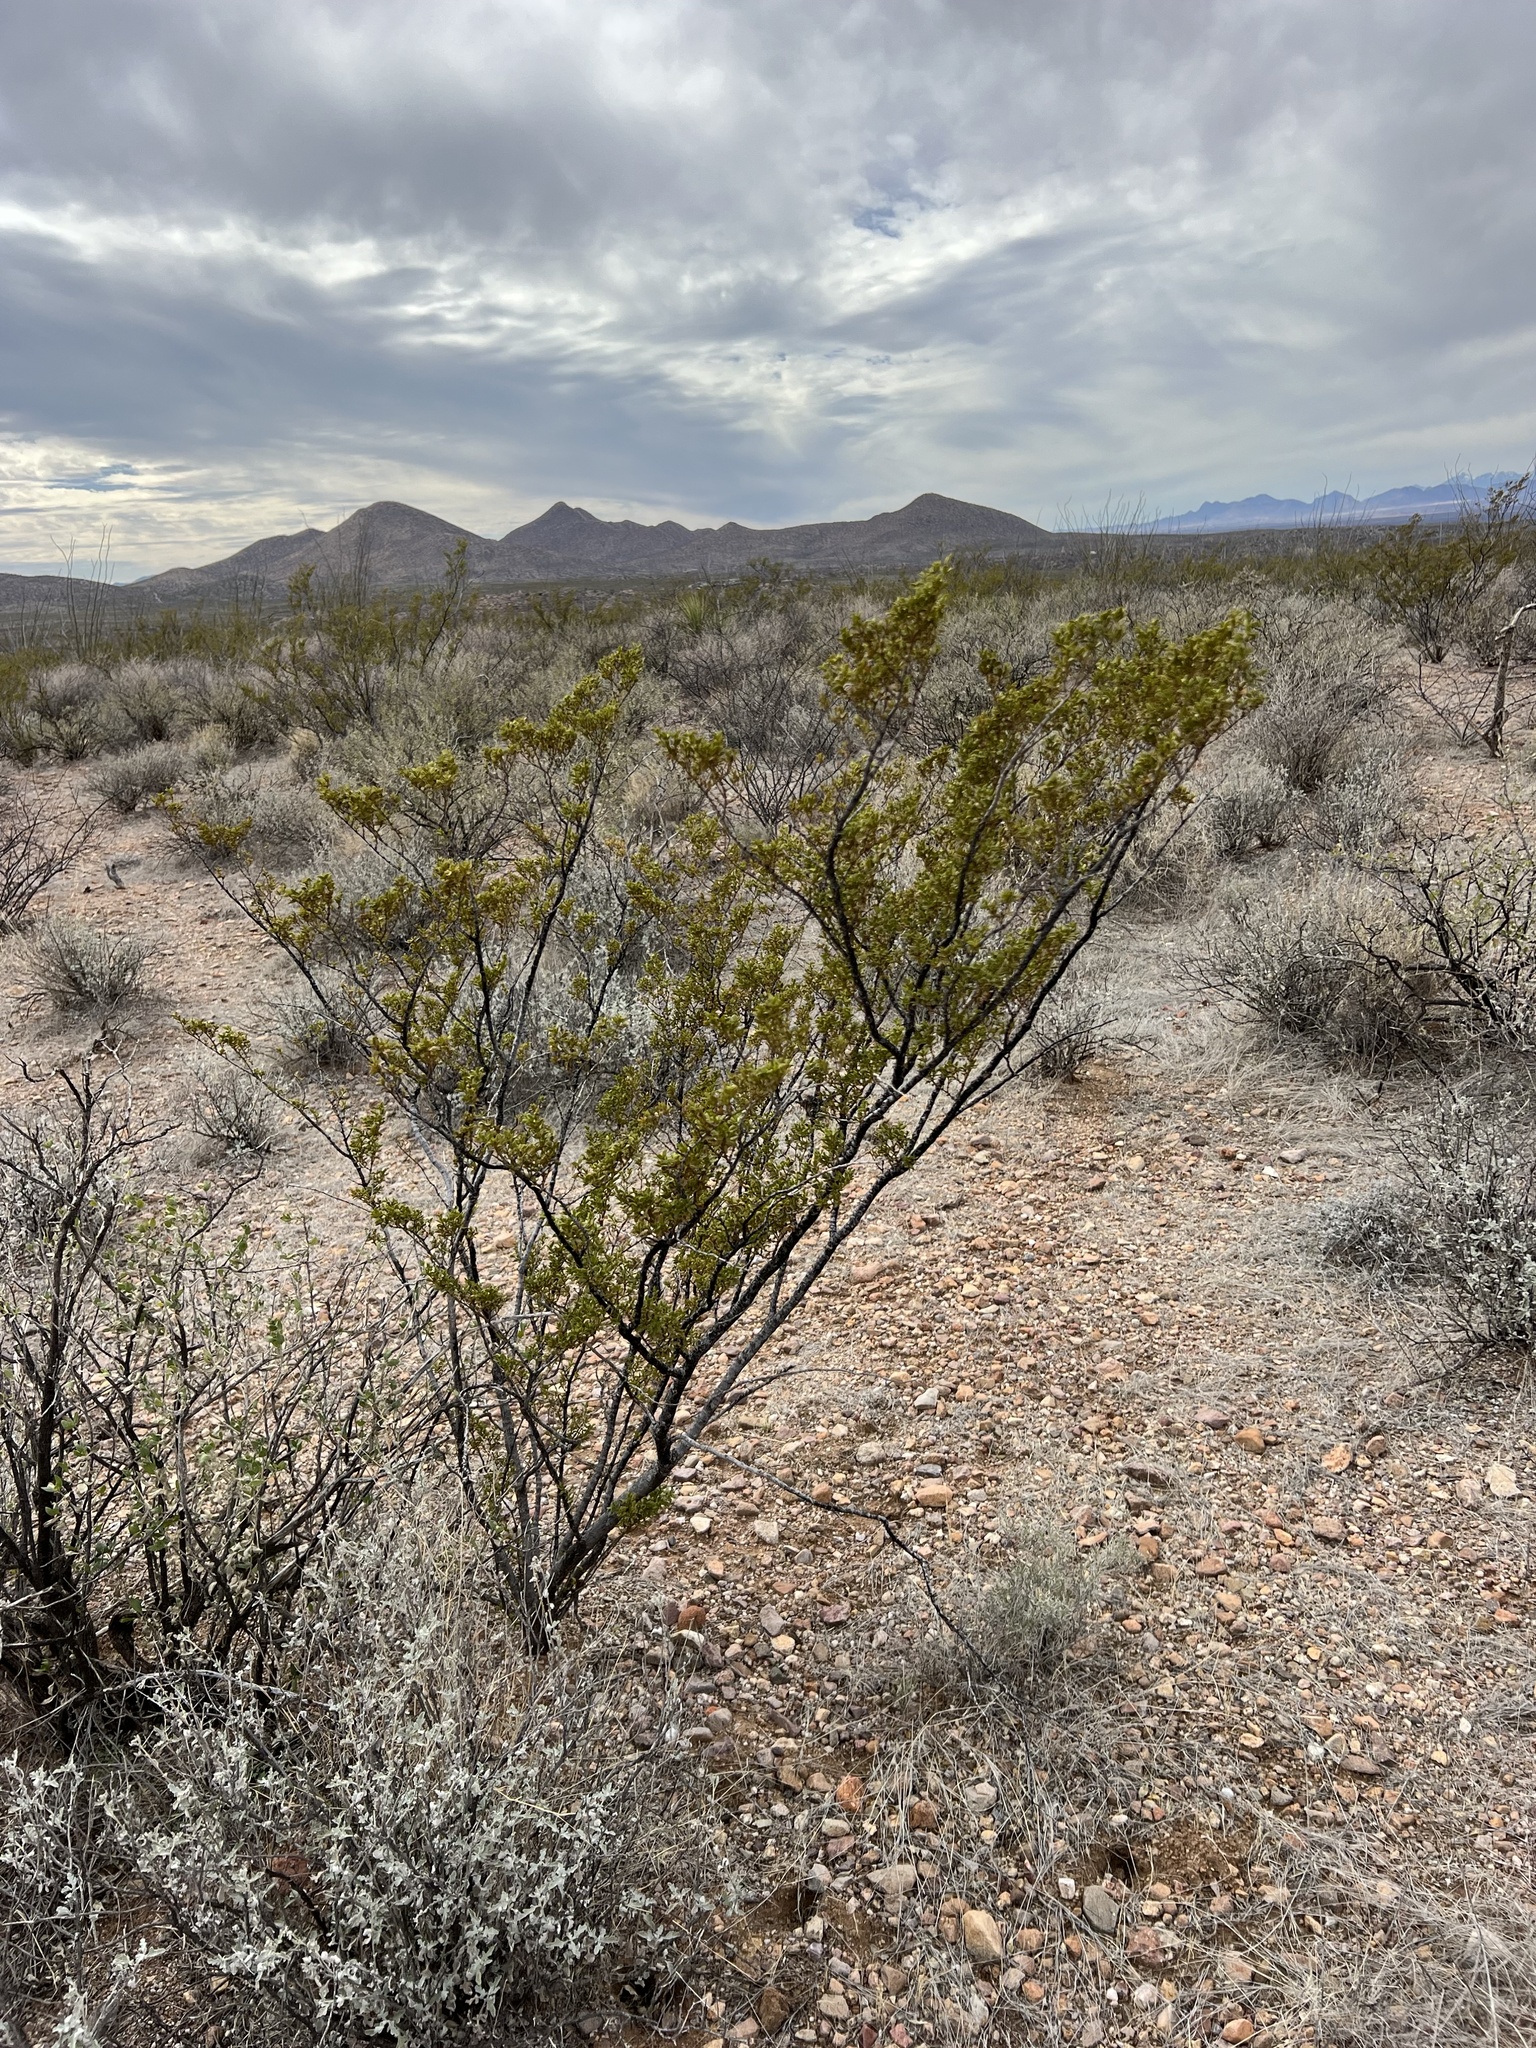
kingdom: Plantae
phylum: Tracheophyta
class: Magnoliopsida
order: Zygophyllales
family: Zygophyllaceae
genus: Larrea
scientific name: Larrea tridentata
